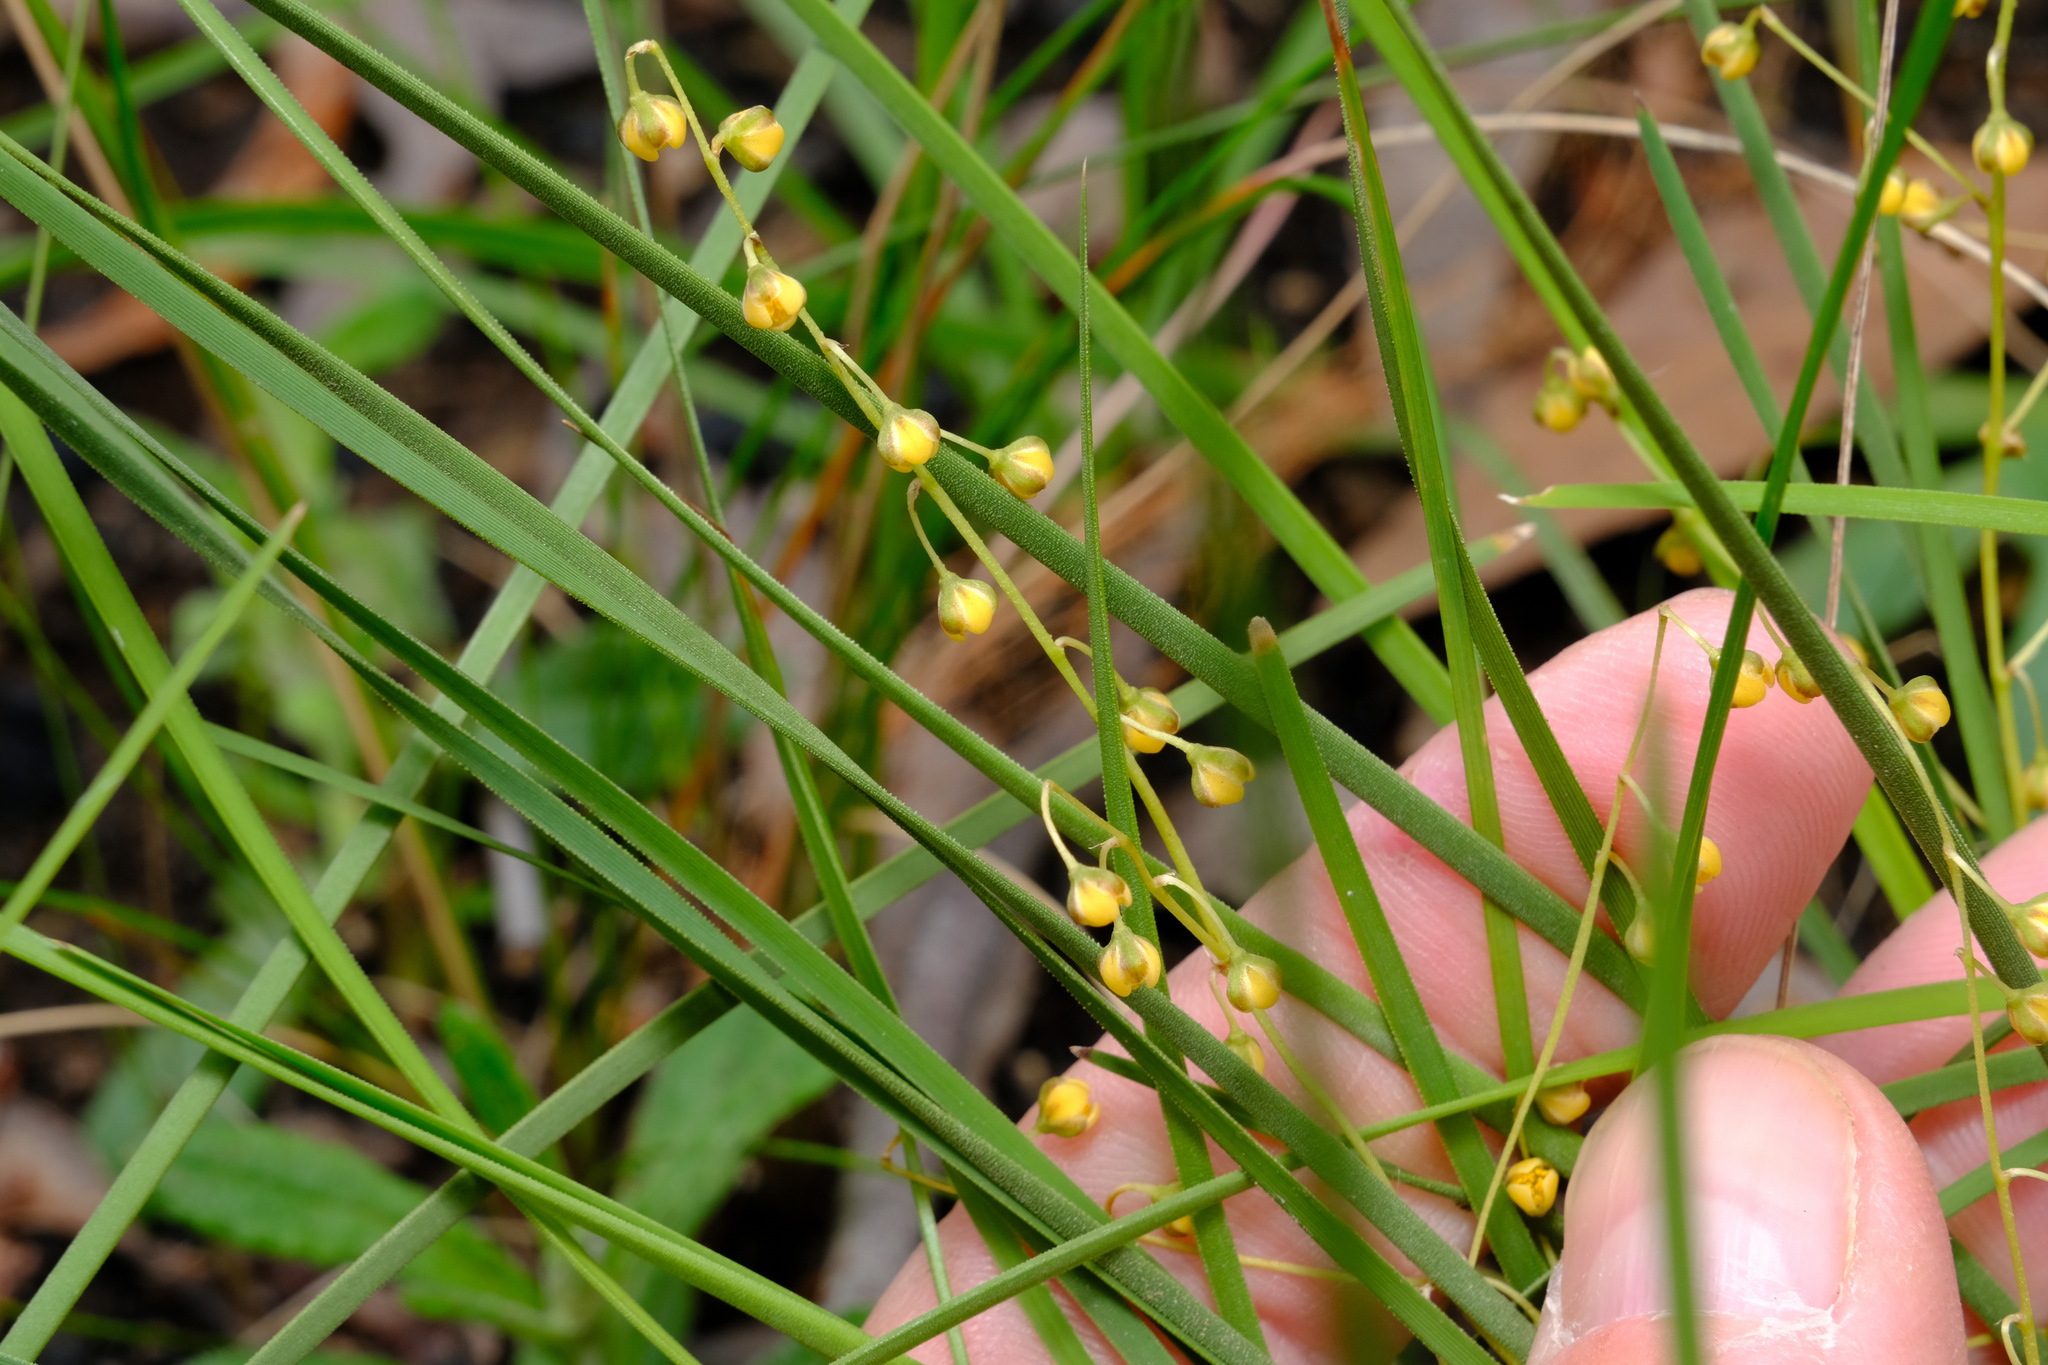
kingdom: Plantae
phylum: Tracheophyta
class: Liliopsida
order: Asparagales
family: Asparagaceae
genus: Lomandra
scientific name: Lomandra filiformis
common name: Wattle mat-rush
